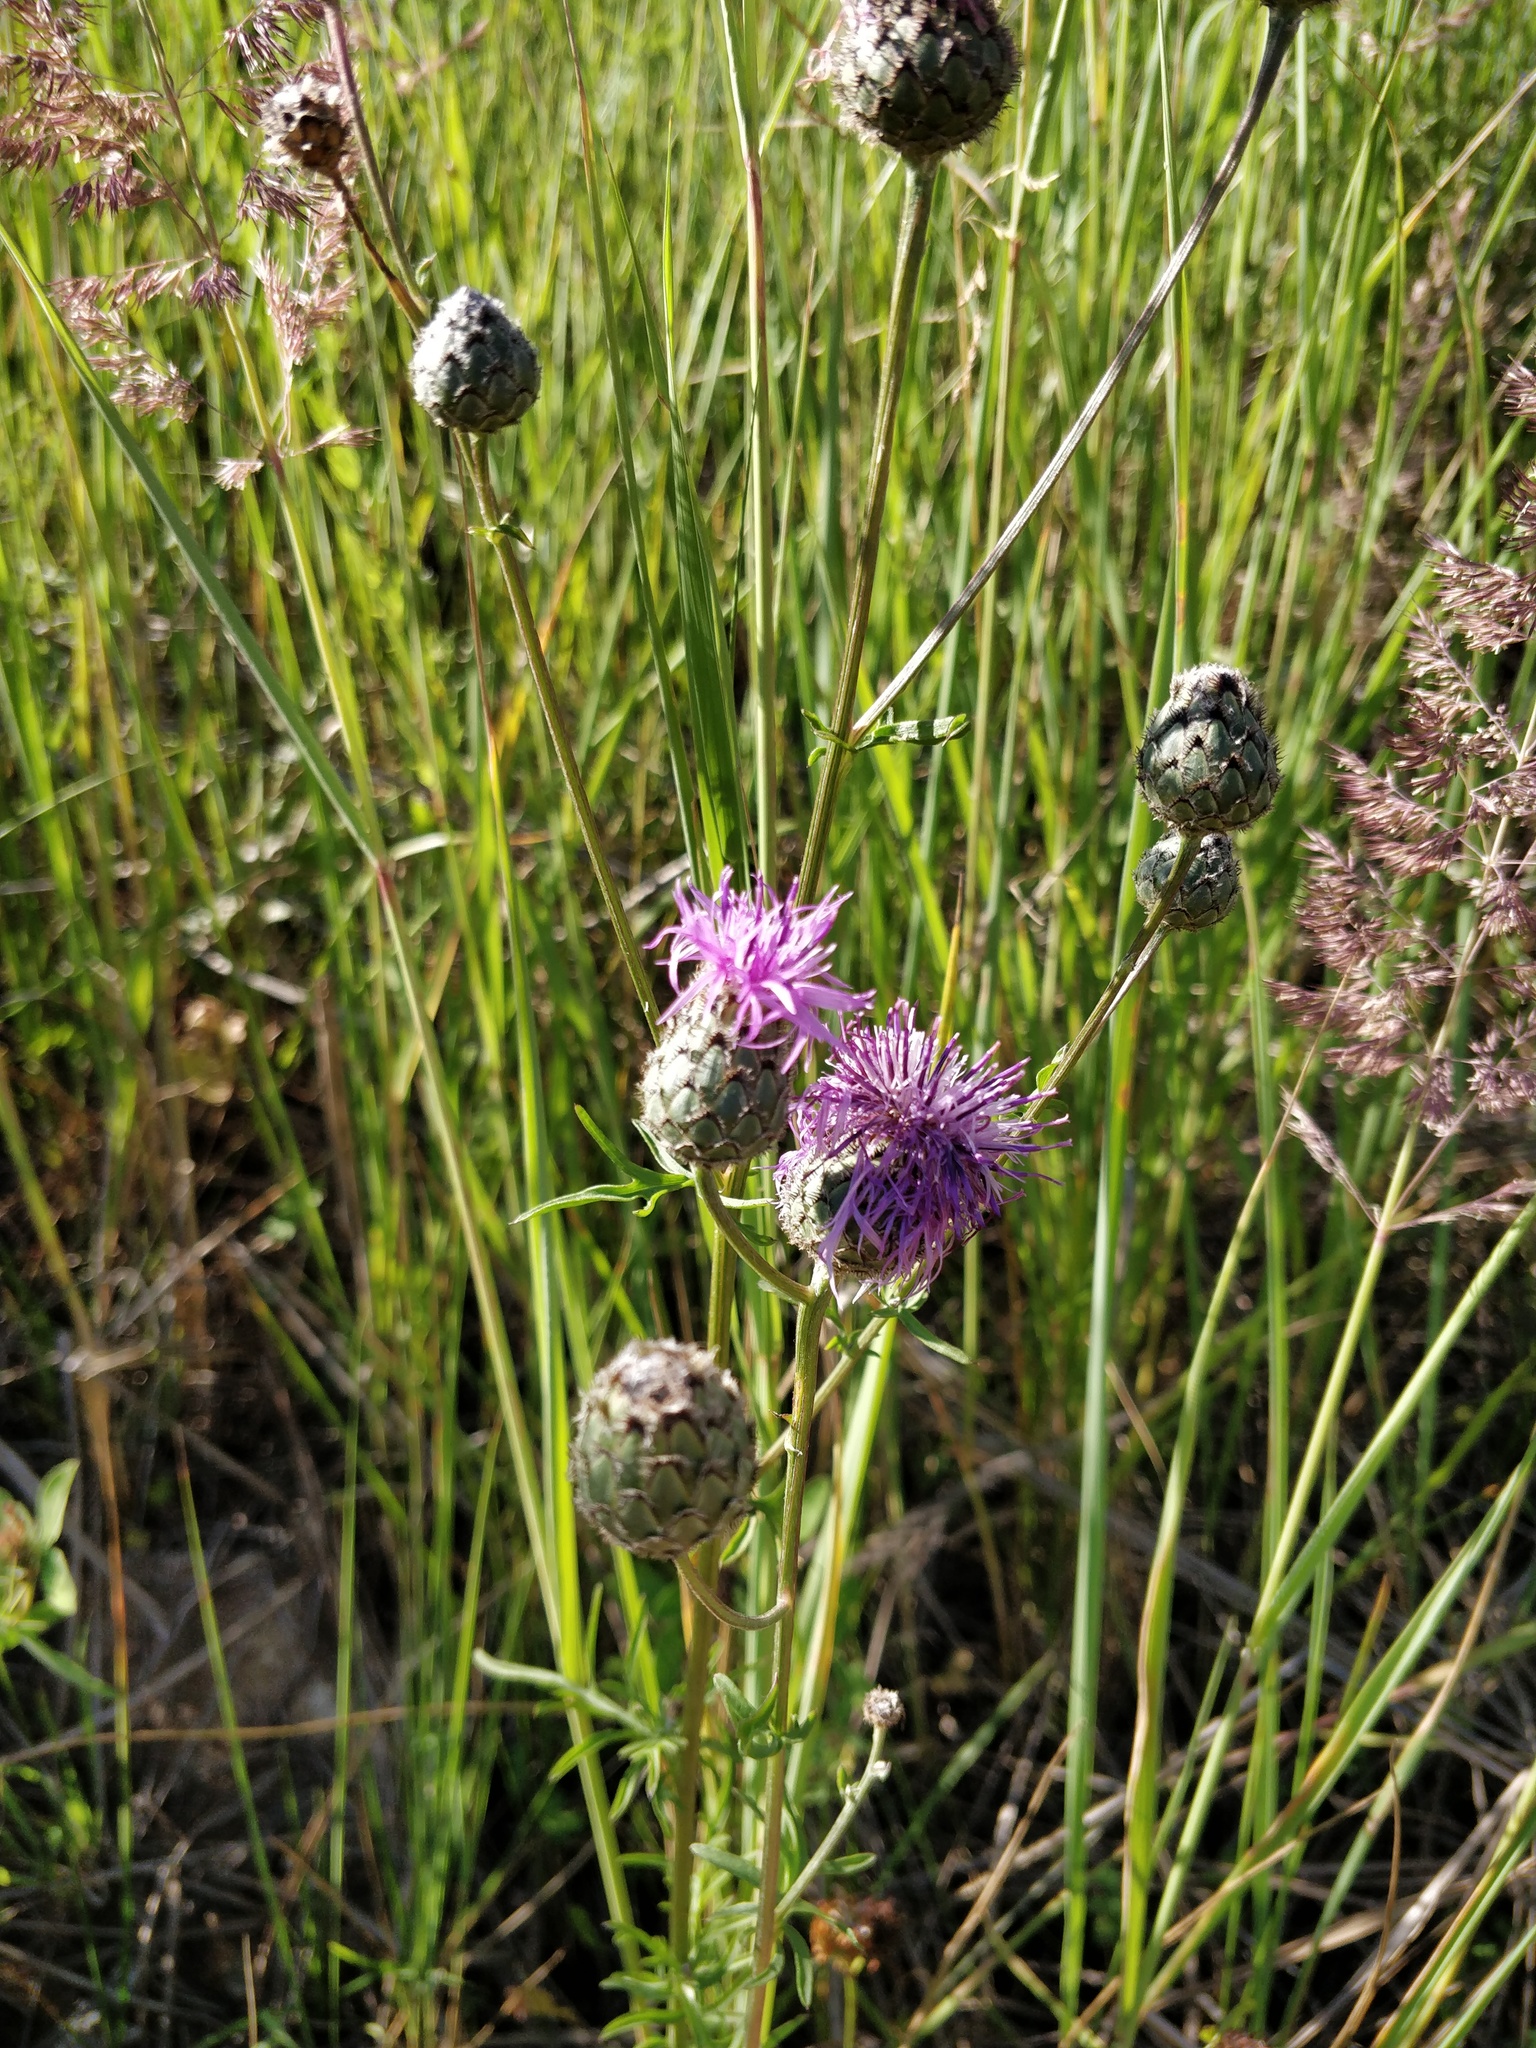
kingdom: Plantae
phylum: Tracheophyta
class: Magnoliopsida
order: Asterales
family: Asteraceae
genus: Centaurea
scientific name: Centaurea scabiosa
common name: Greater knapweed
